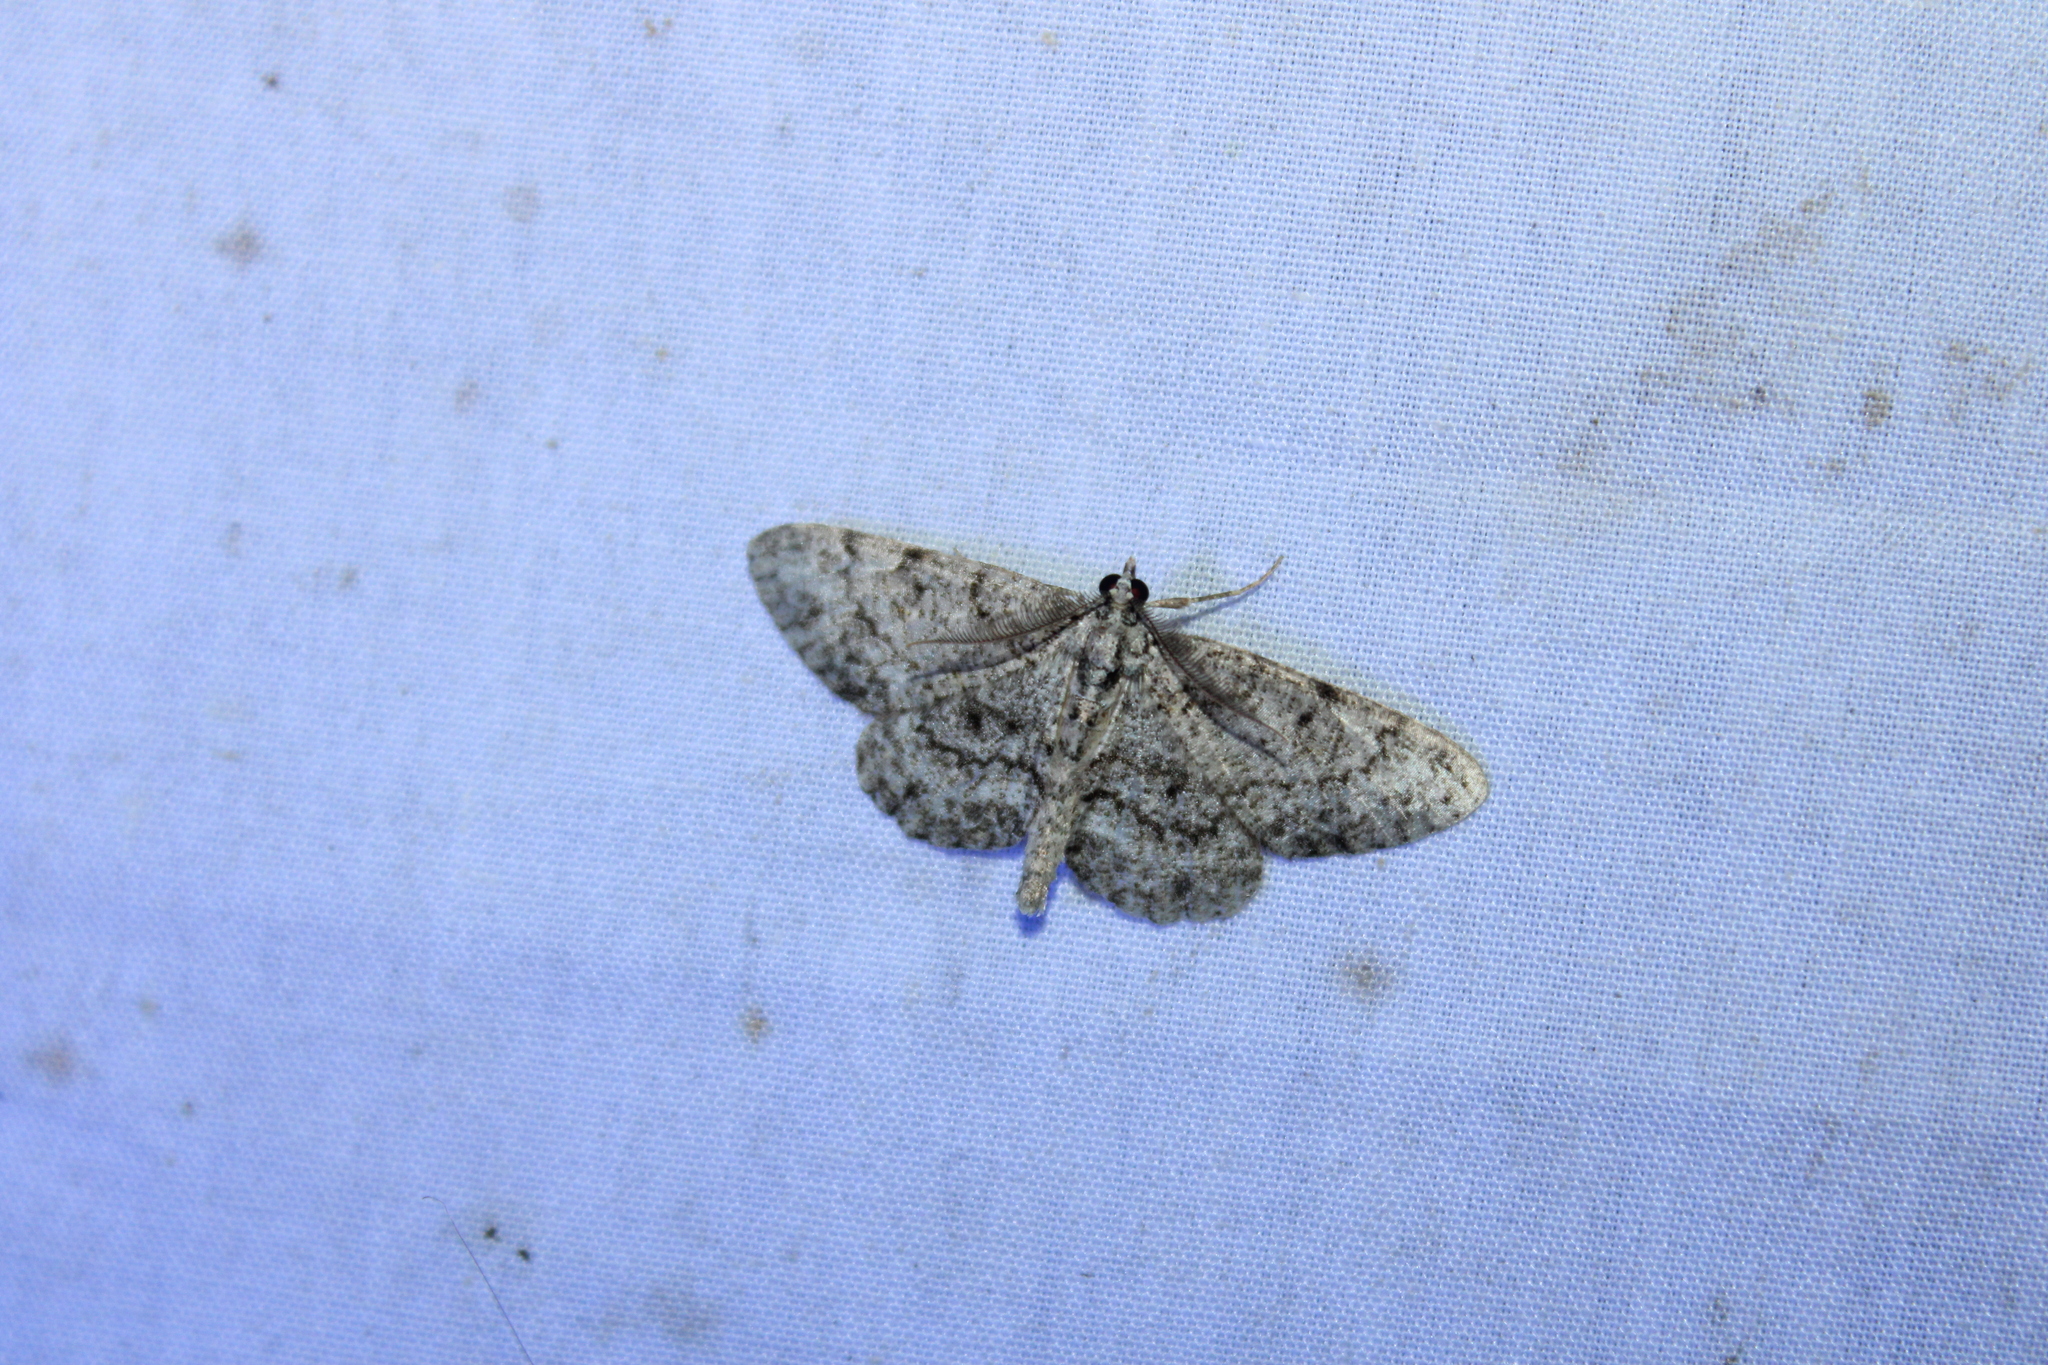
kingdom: Animalia
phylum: Arthropoda
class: Insecta
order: Lepidoptera
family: Geometridae
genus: Protoboarmia
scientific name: Protoboarmia porcelaria
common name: Porcelain gray
